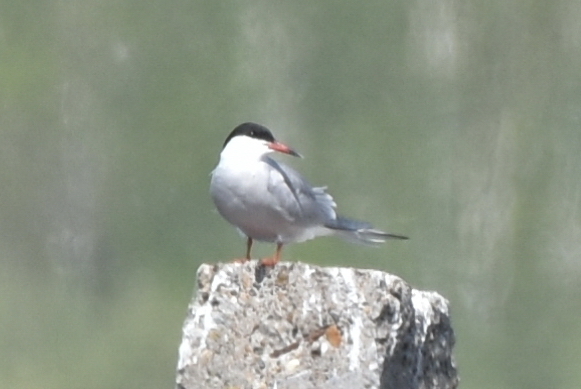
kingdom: Animalia
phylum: Chordata
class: Aves
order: Charadriiformes
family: Laridae
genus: Sterna
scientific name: Sterna hirundo
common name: Common tern
